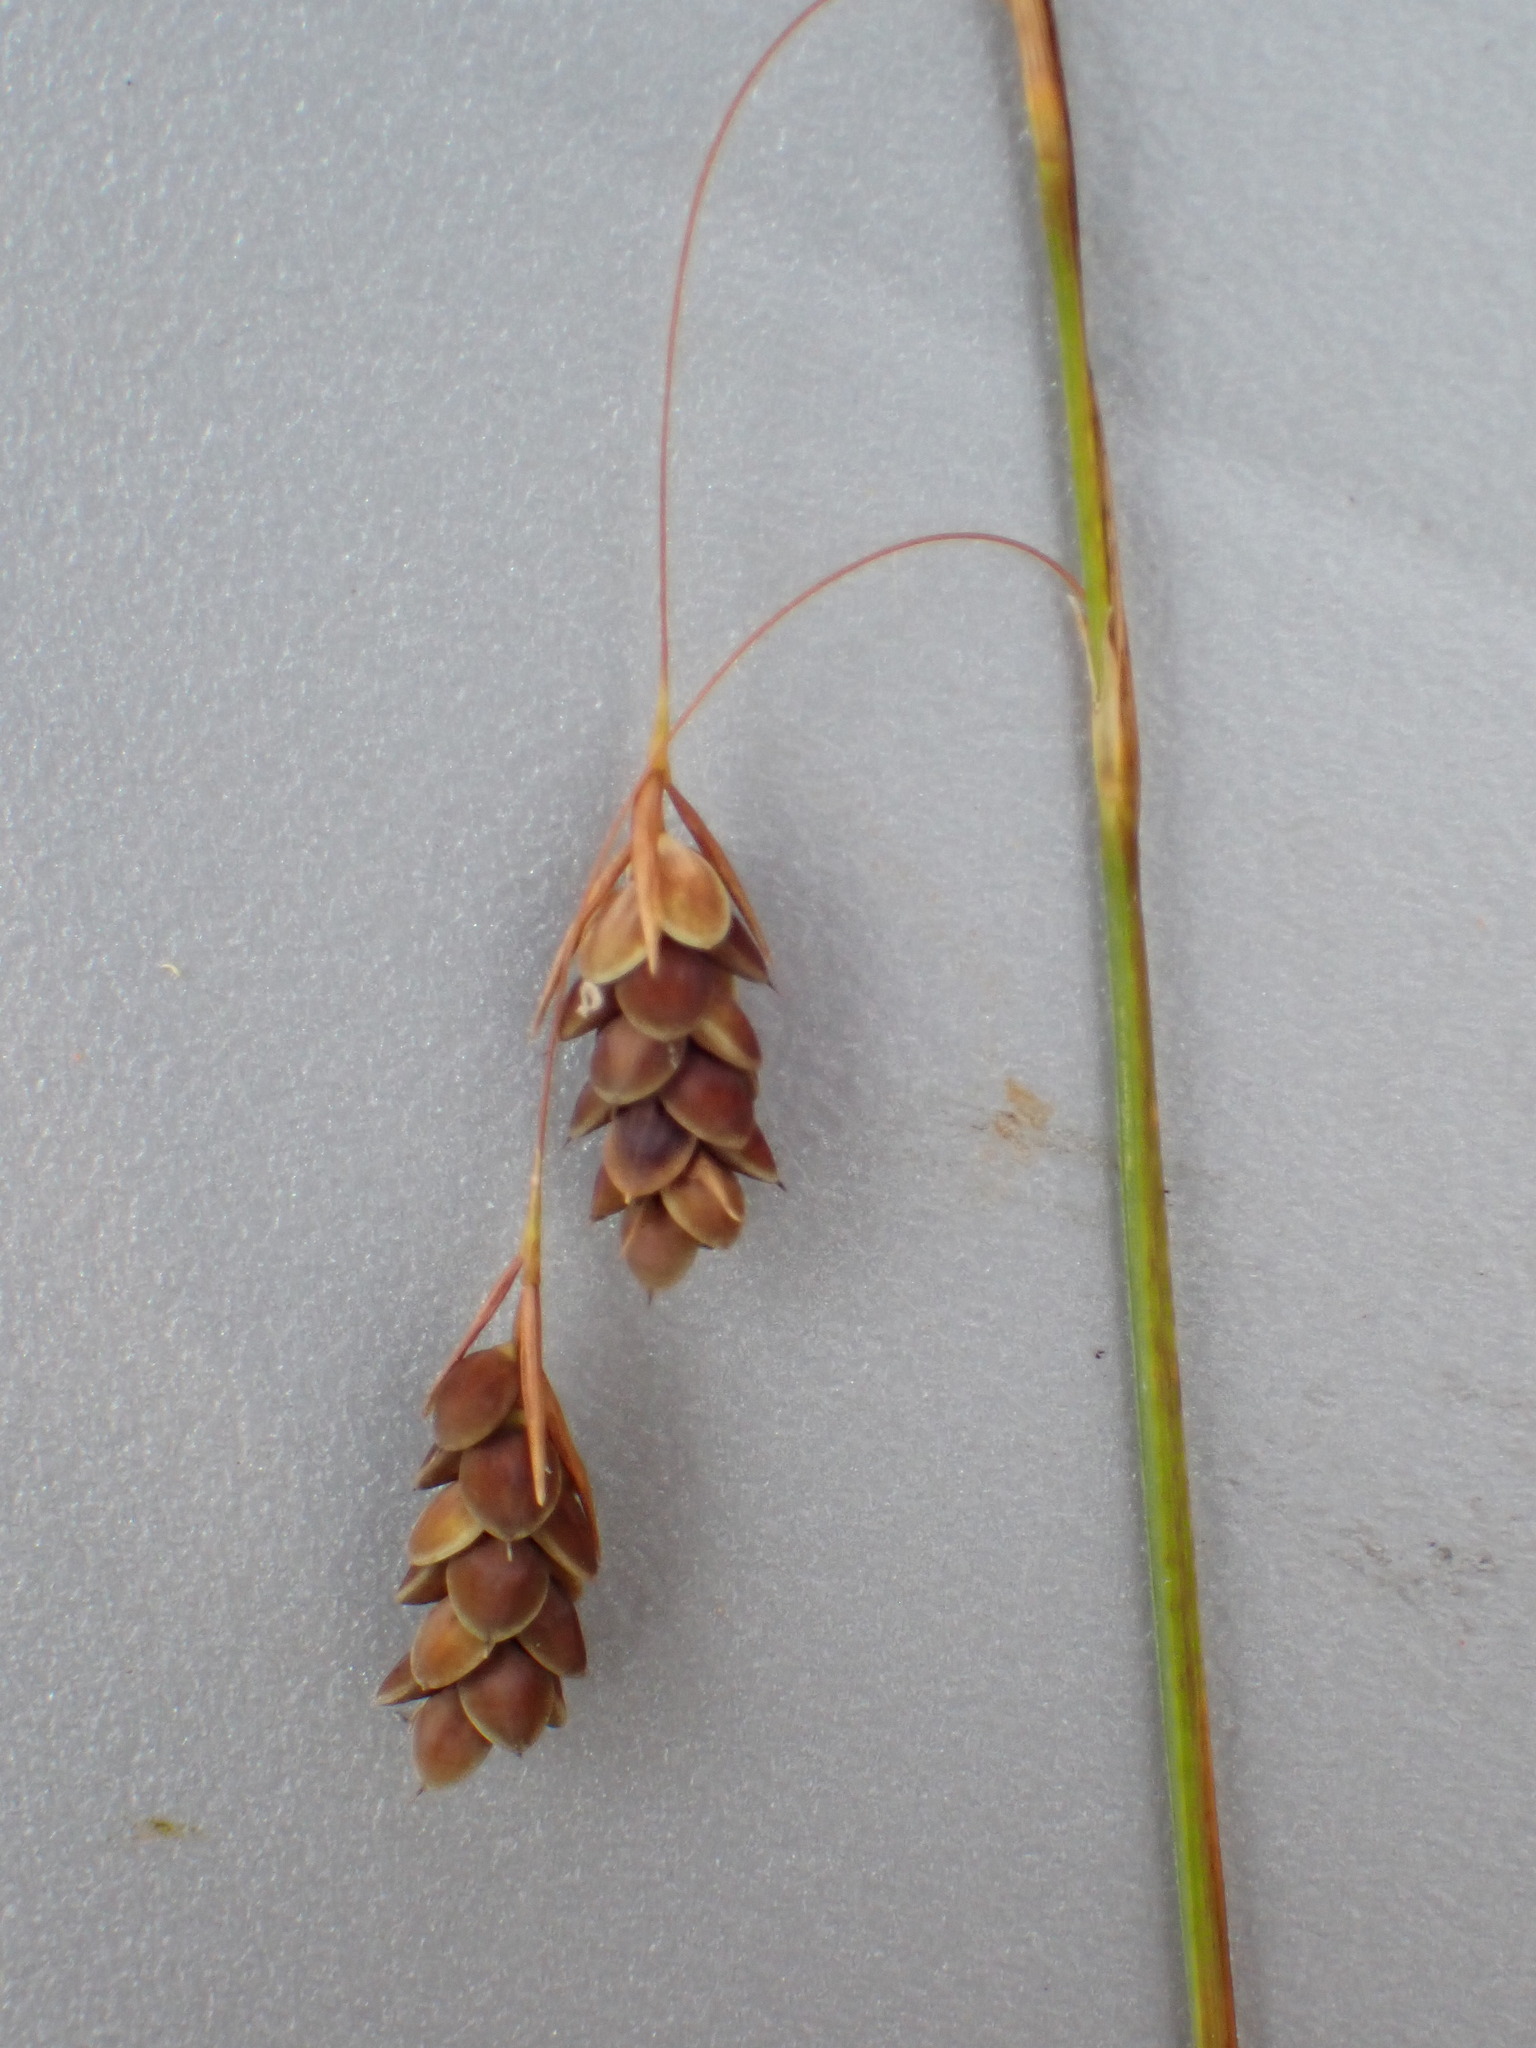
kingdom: Plantae
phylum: Tracheophyta
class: Liliopsida
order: Poales
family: Cyperaceae
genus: Carex
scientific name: Carex magellanica
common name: Bog sedge
